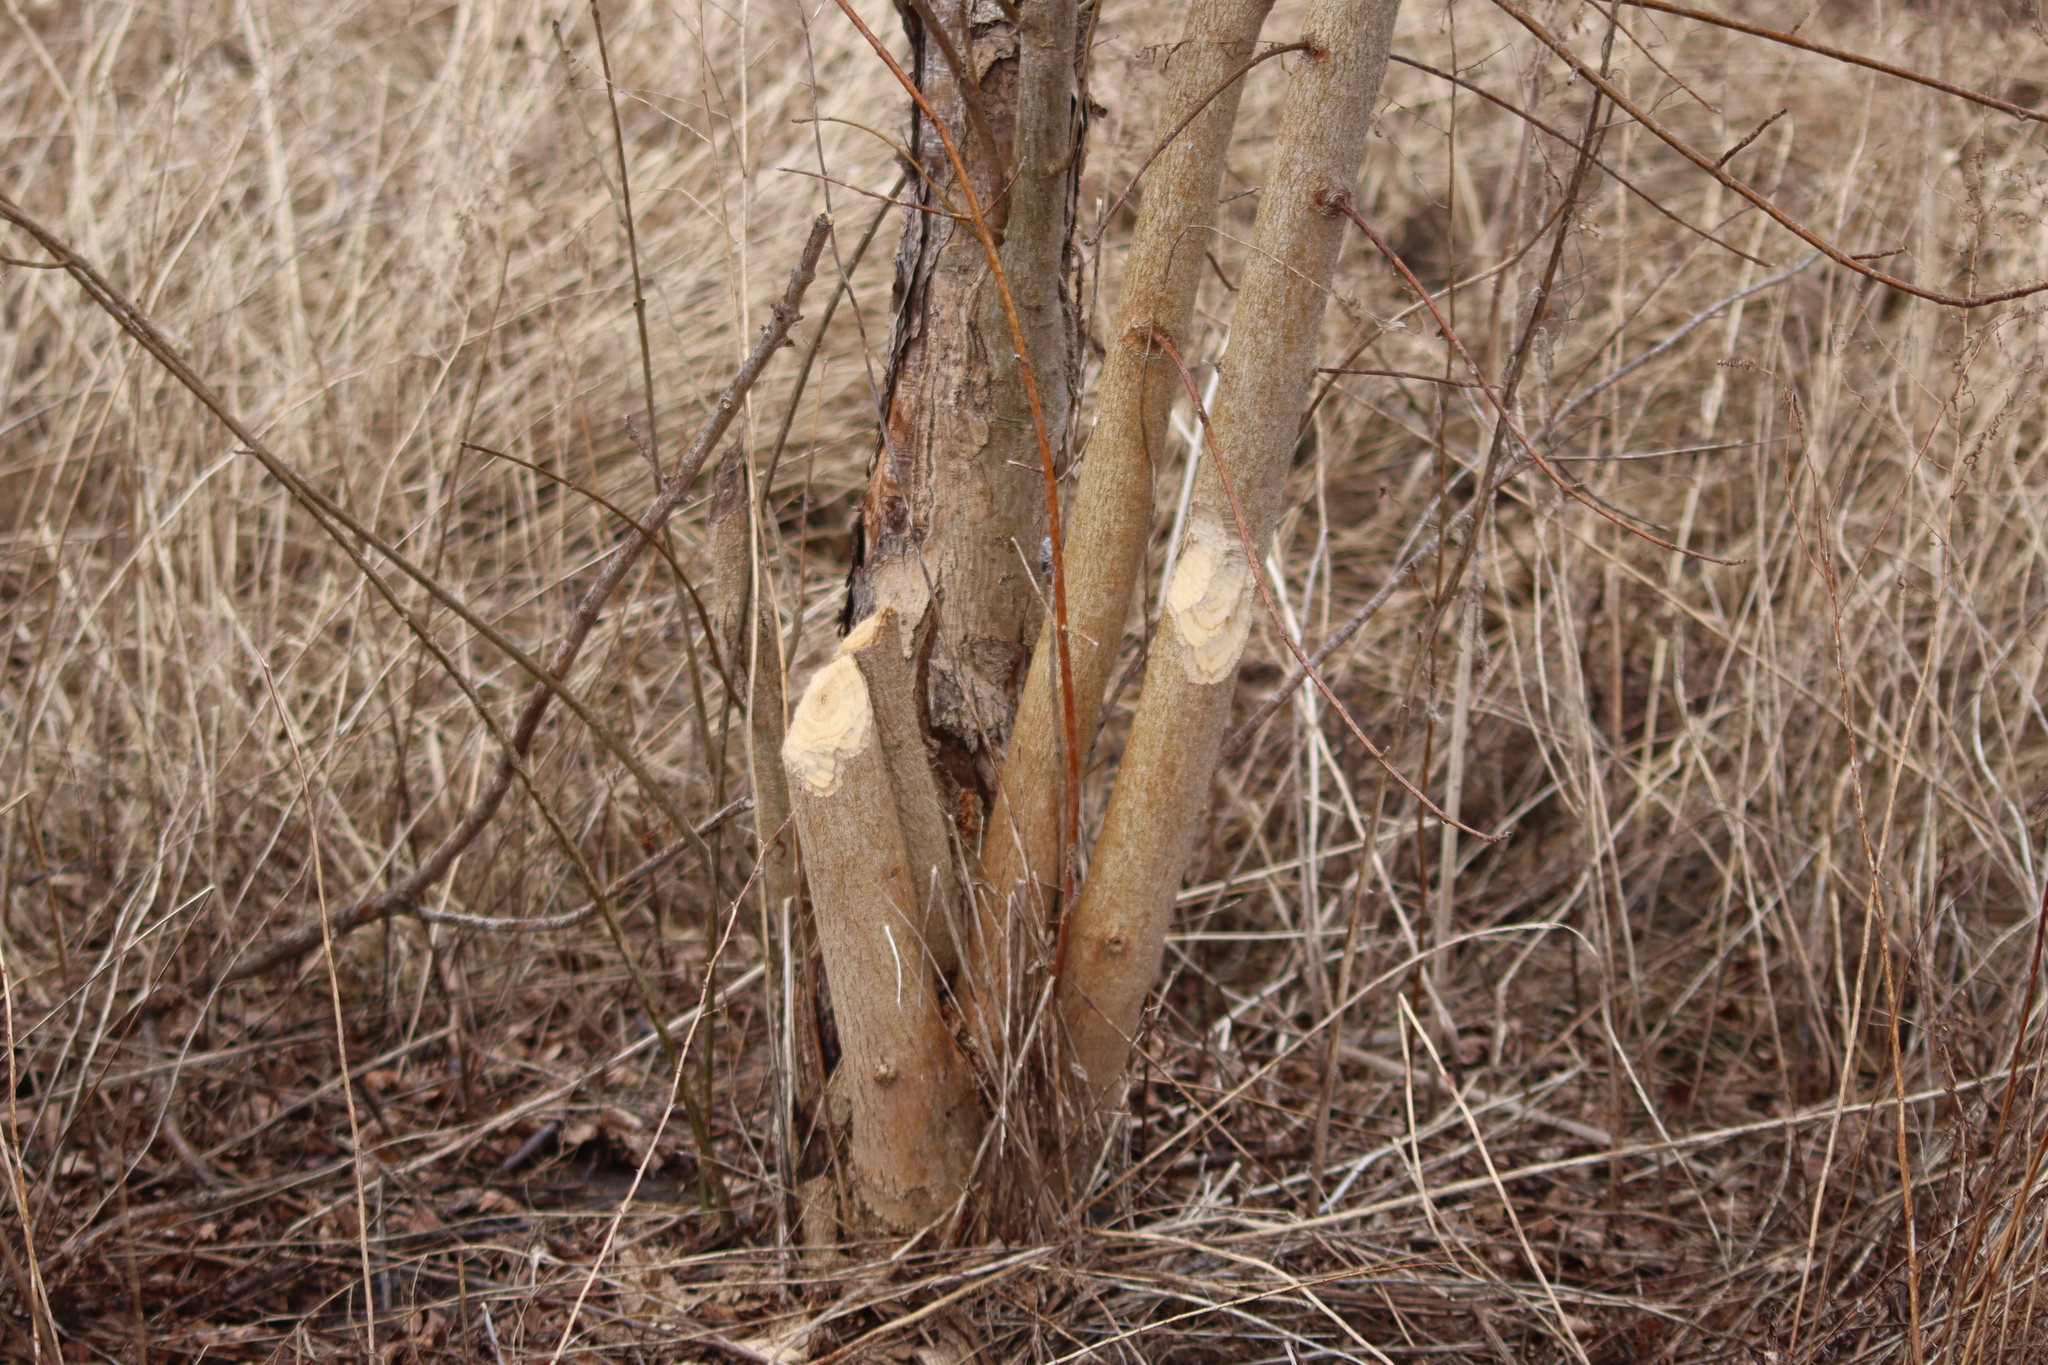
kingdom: Animalia
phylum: Chordata
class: Mammalia
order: Rodentia
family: Castoridae
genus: Castor
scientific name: Castor canadensis
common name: American beaver
